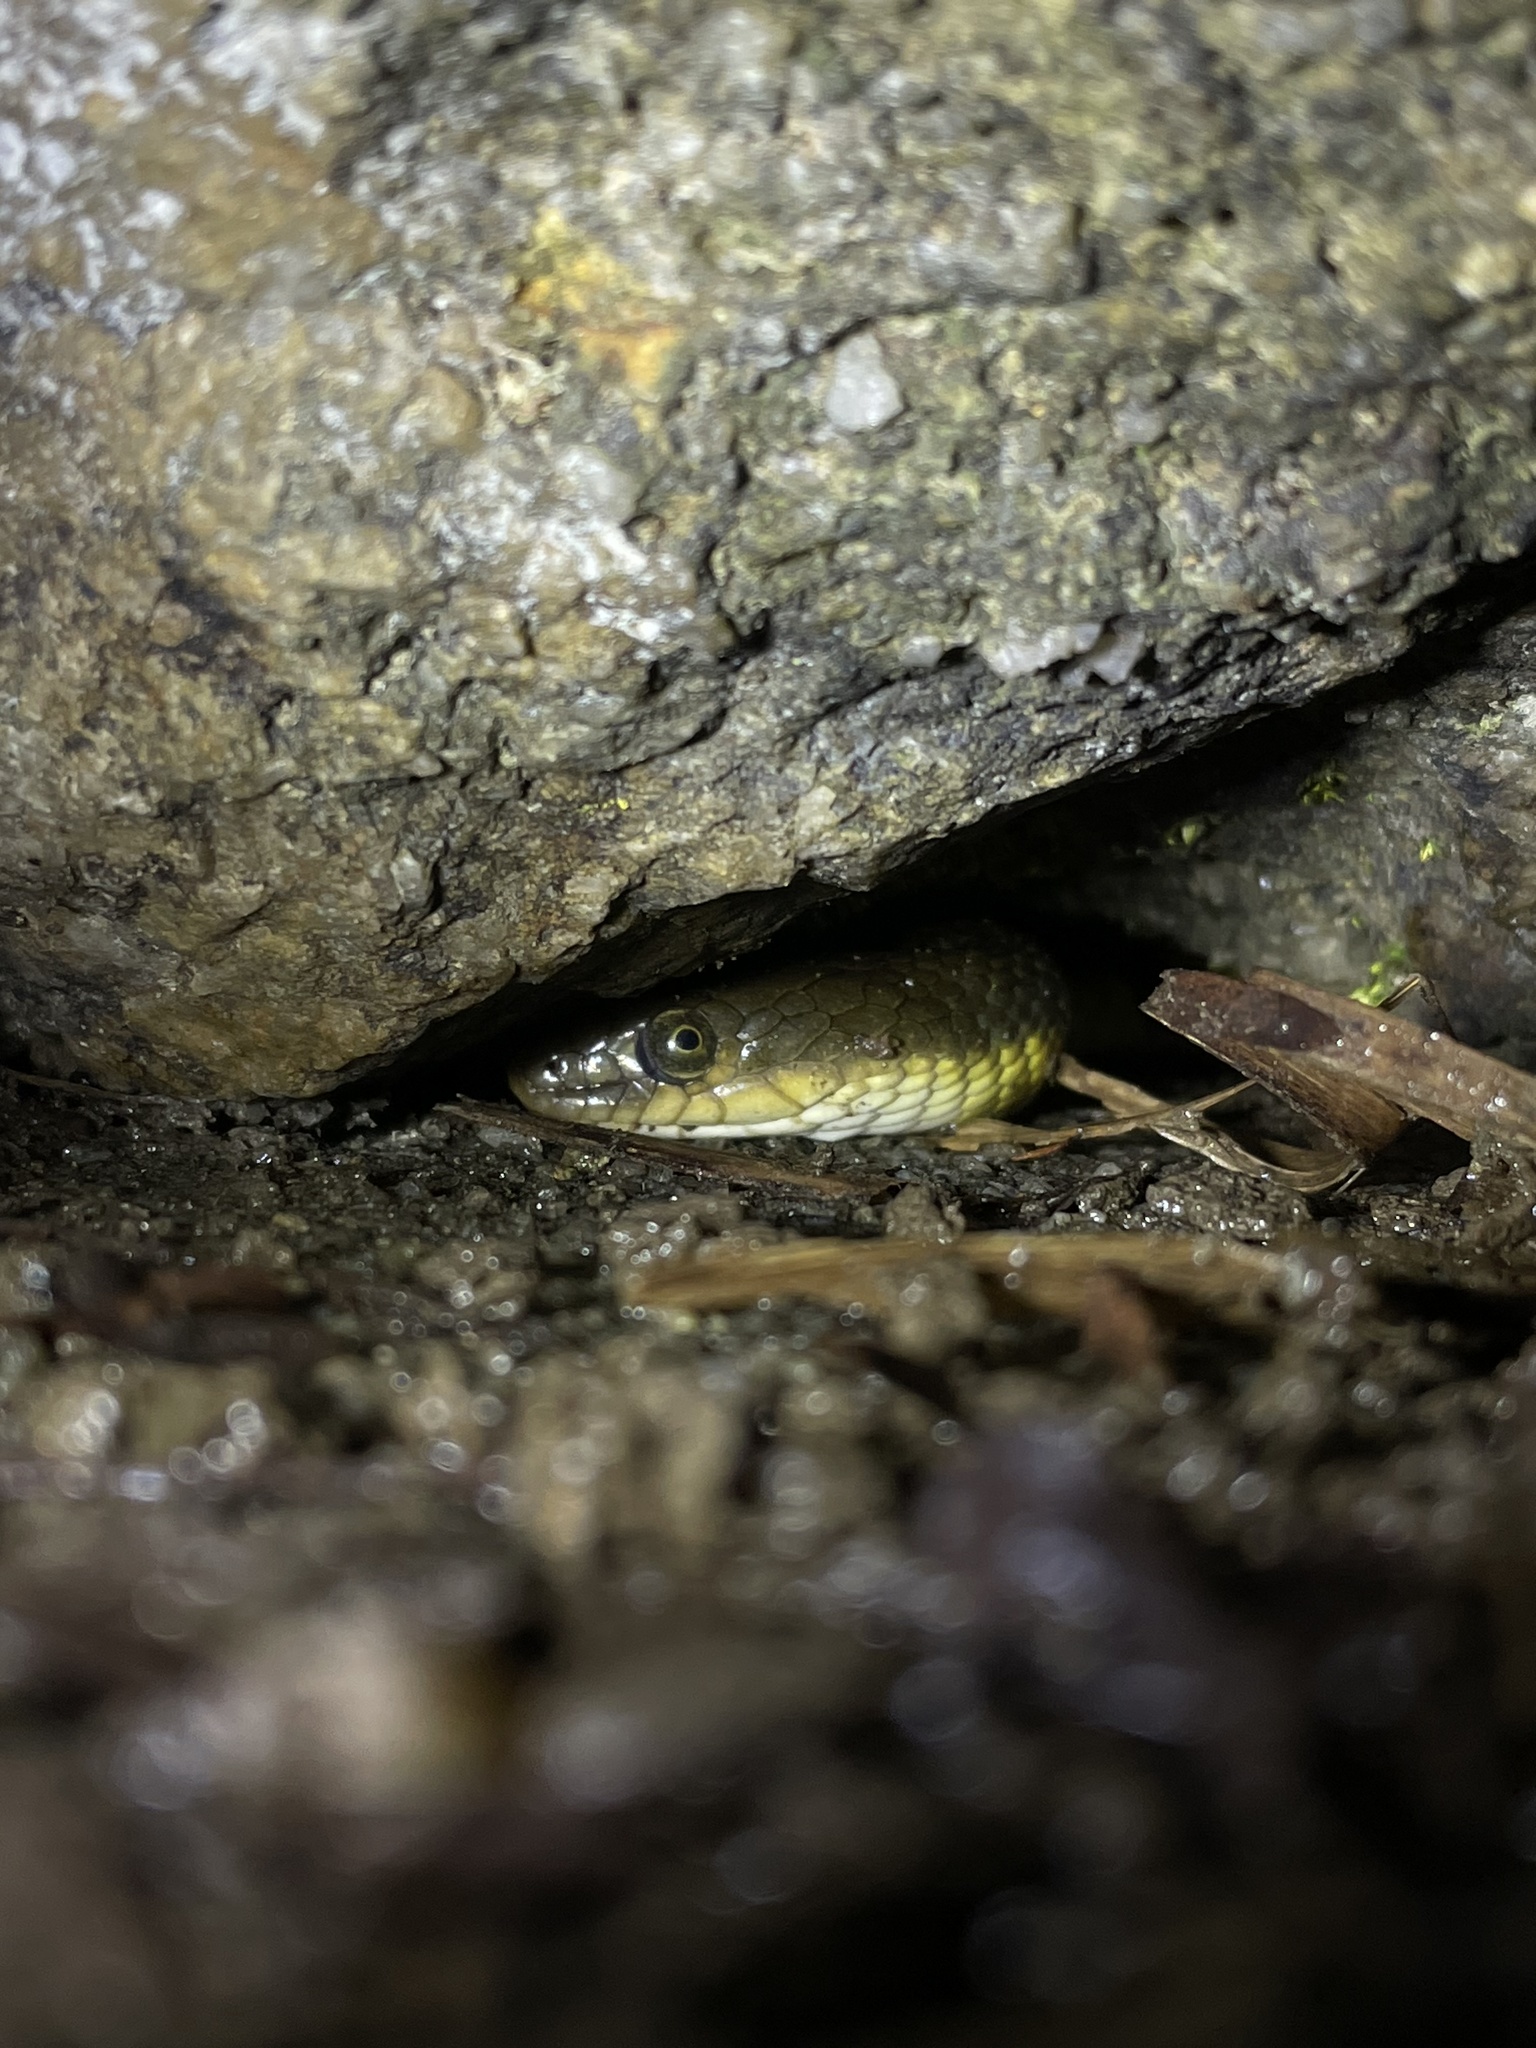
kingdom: Animalia
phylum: Chordata
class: Squamata
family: Colubridae
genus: Trimerodytes
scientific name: Trimerodytes percarinatus
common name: Eastern water snake
